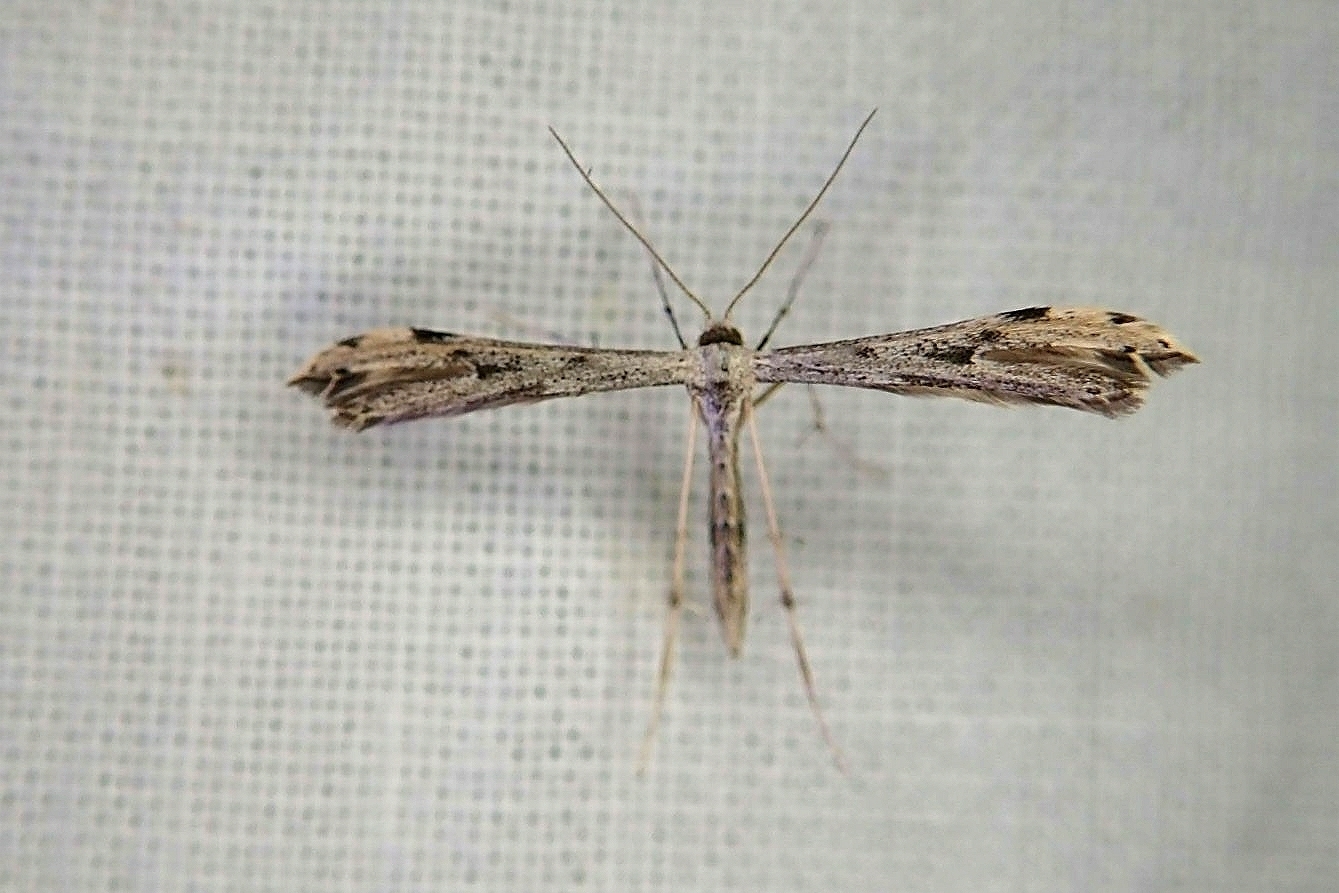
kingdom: Animalia
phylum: Arthropoda
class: Insecta
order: Lepidoptera
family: Pterophoridae
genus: Adaina
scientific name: Adaina ambrosiae
